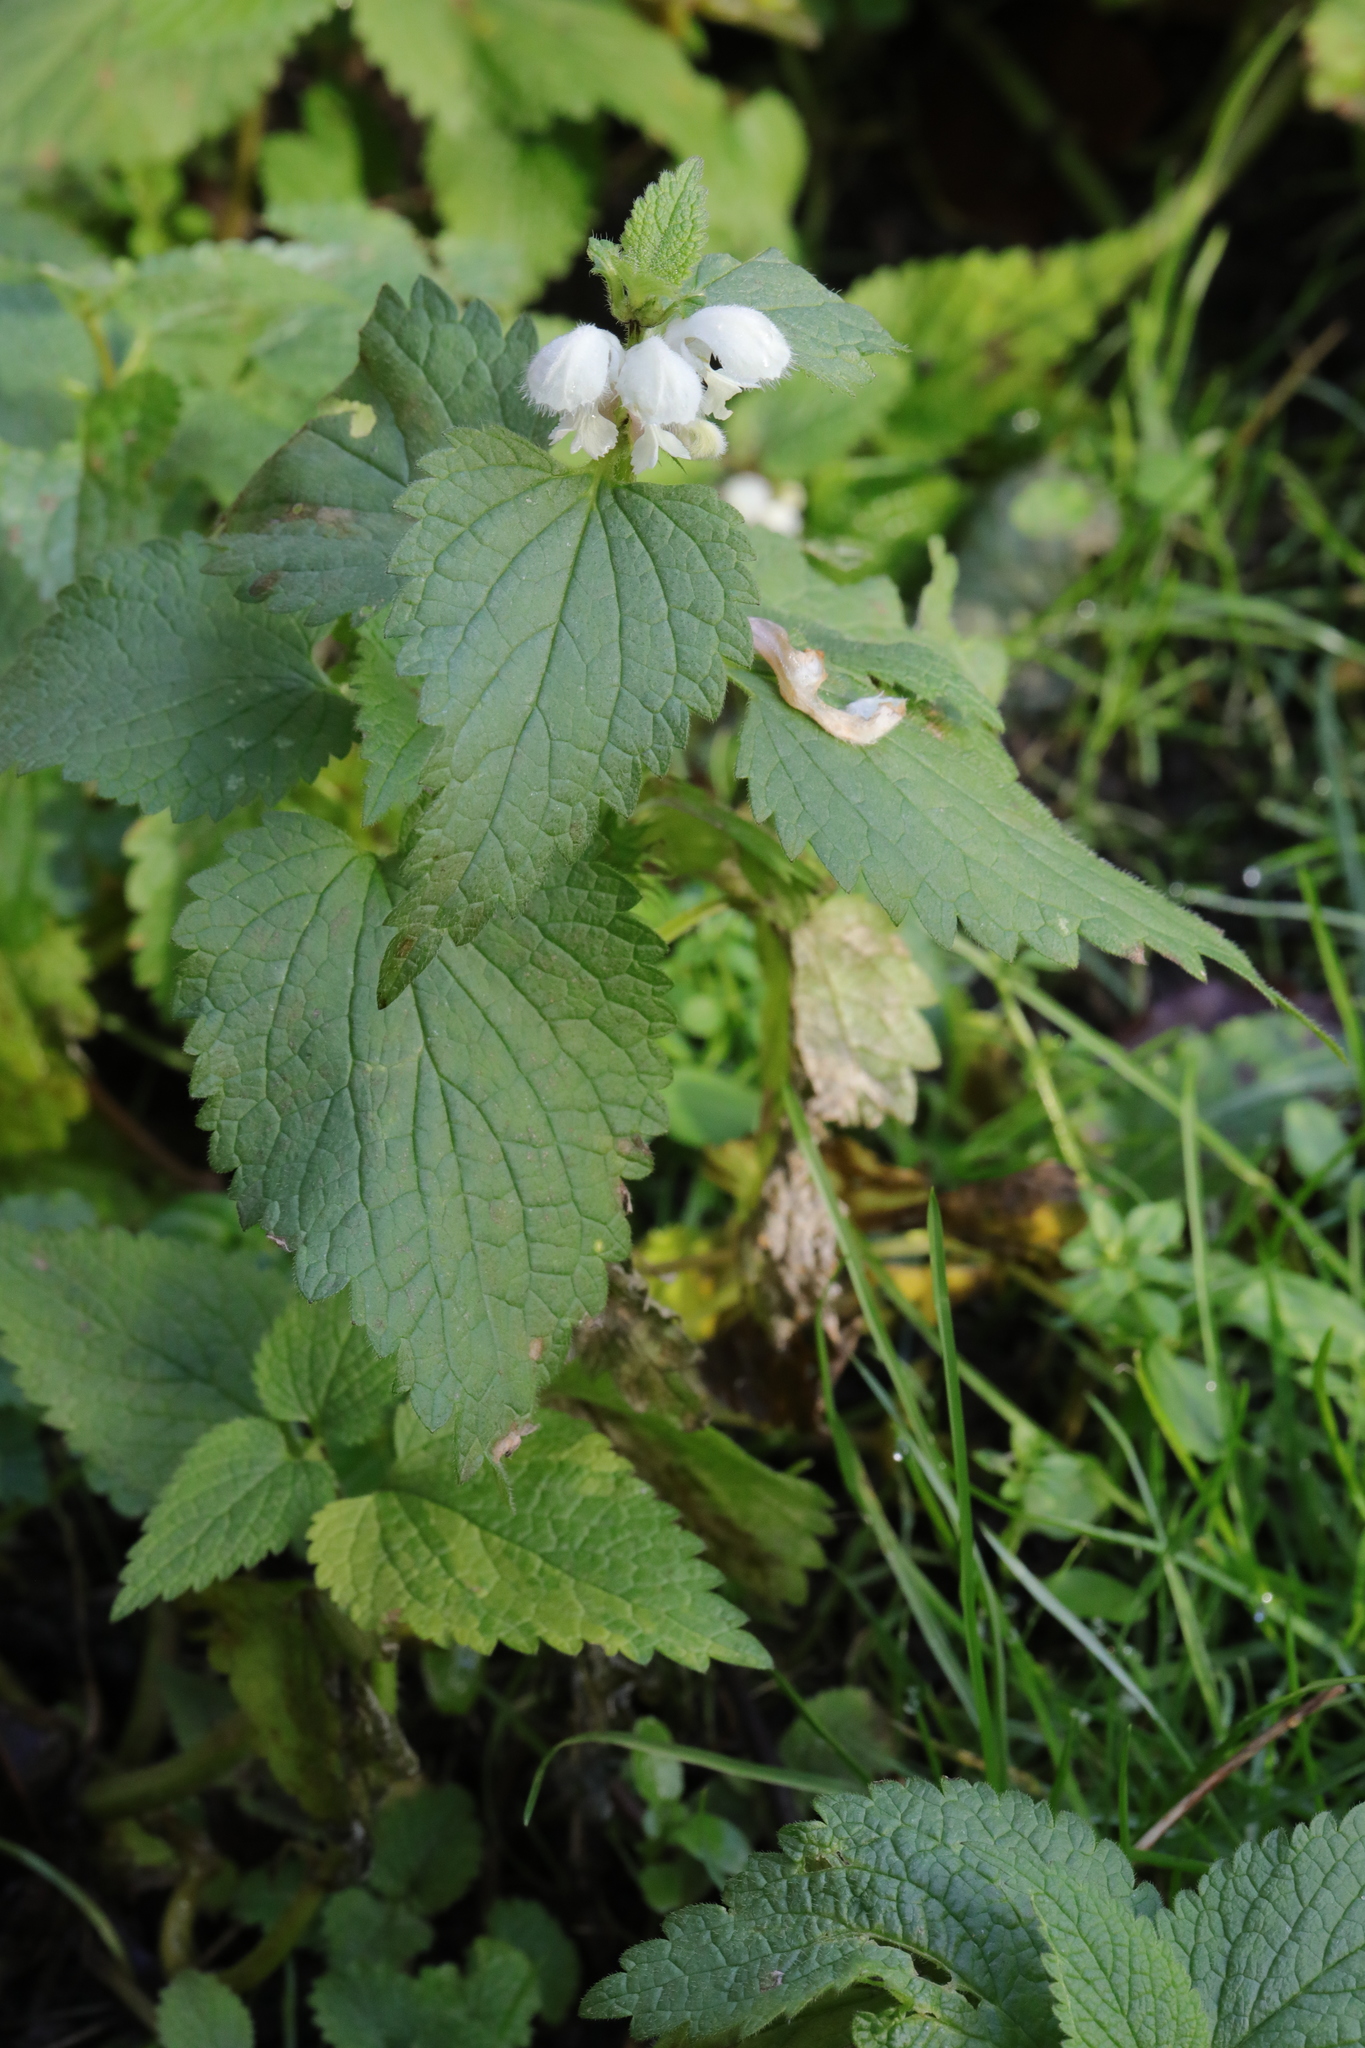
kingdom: Plantae
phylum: Tracheophyta
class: Magnoliopsida
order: Lamiales
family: Lamiaceae
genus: Lamium
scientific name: Lamium album
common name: White dead-nettle
